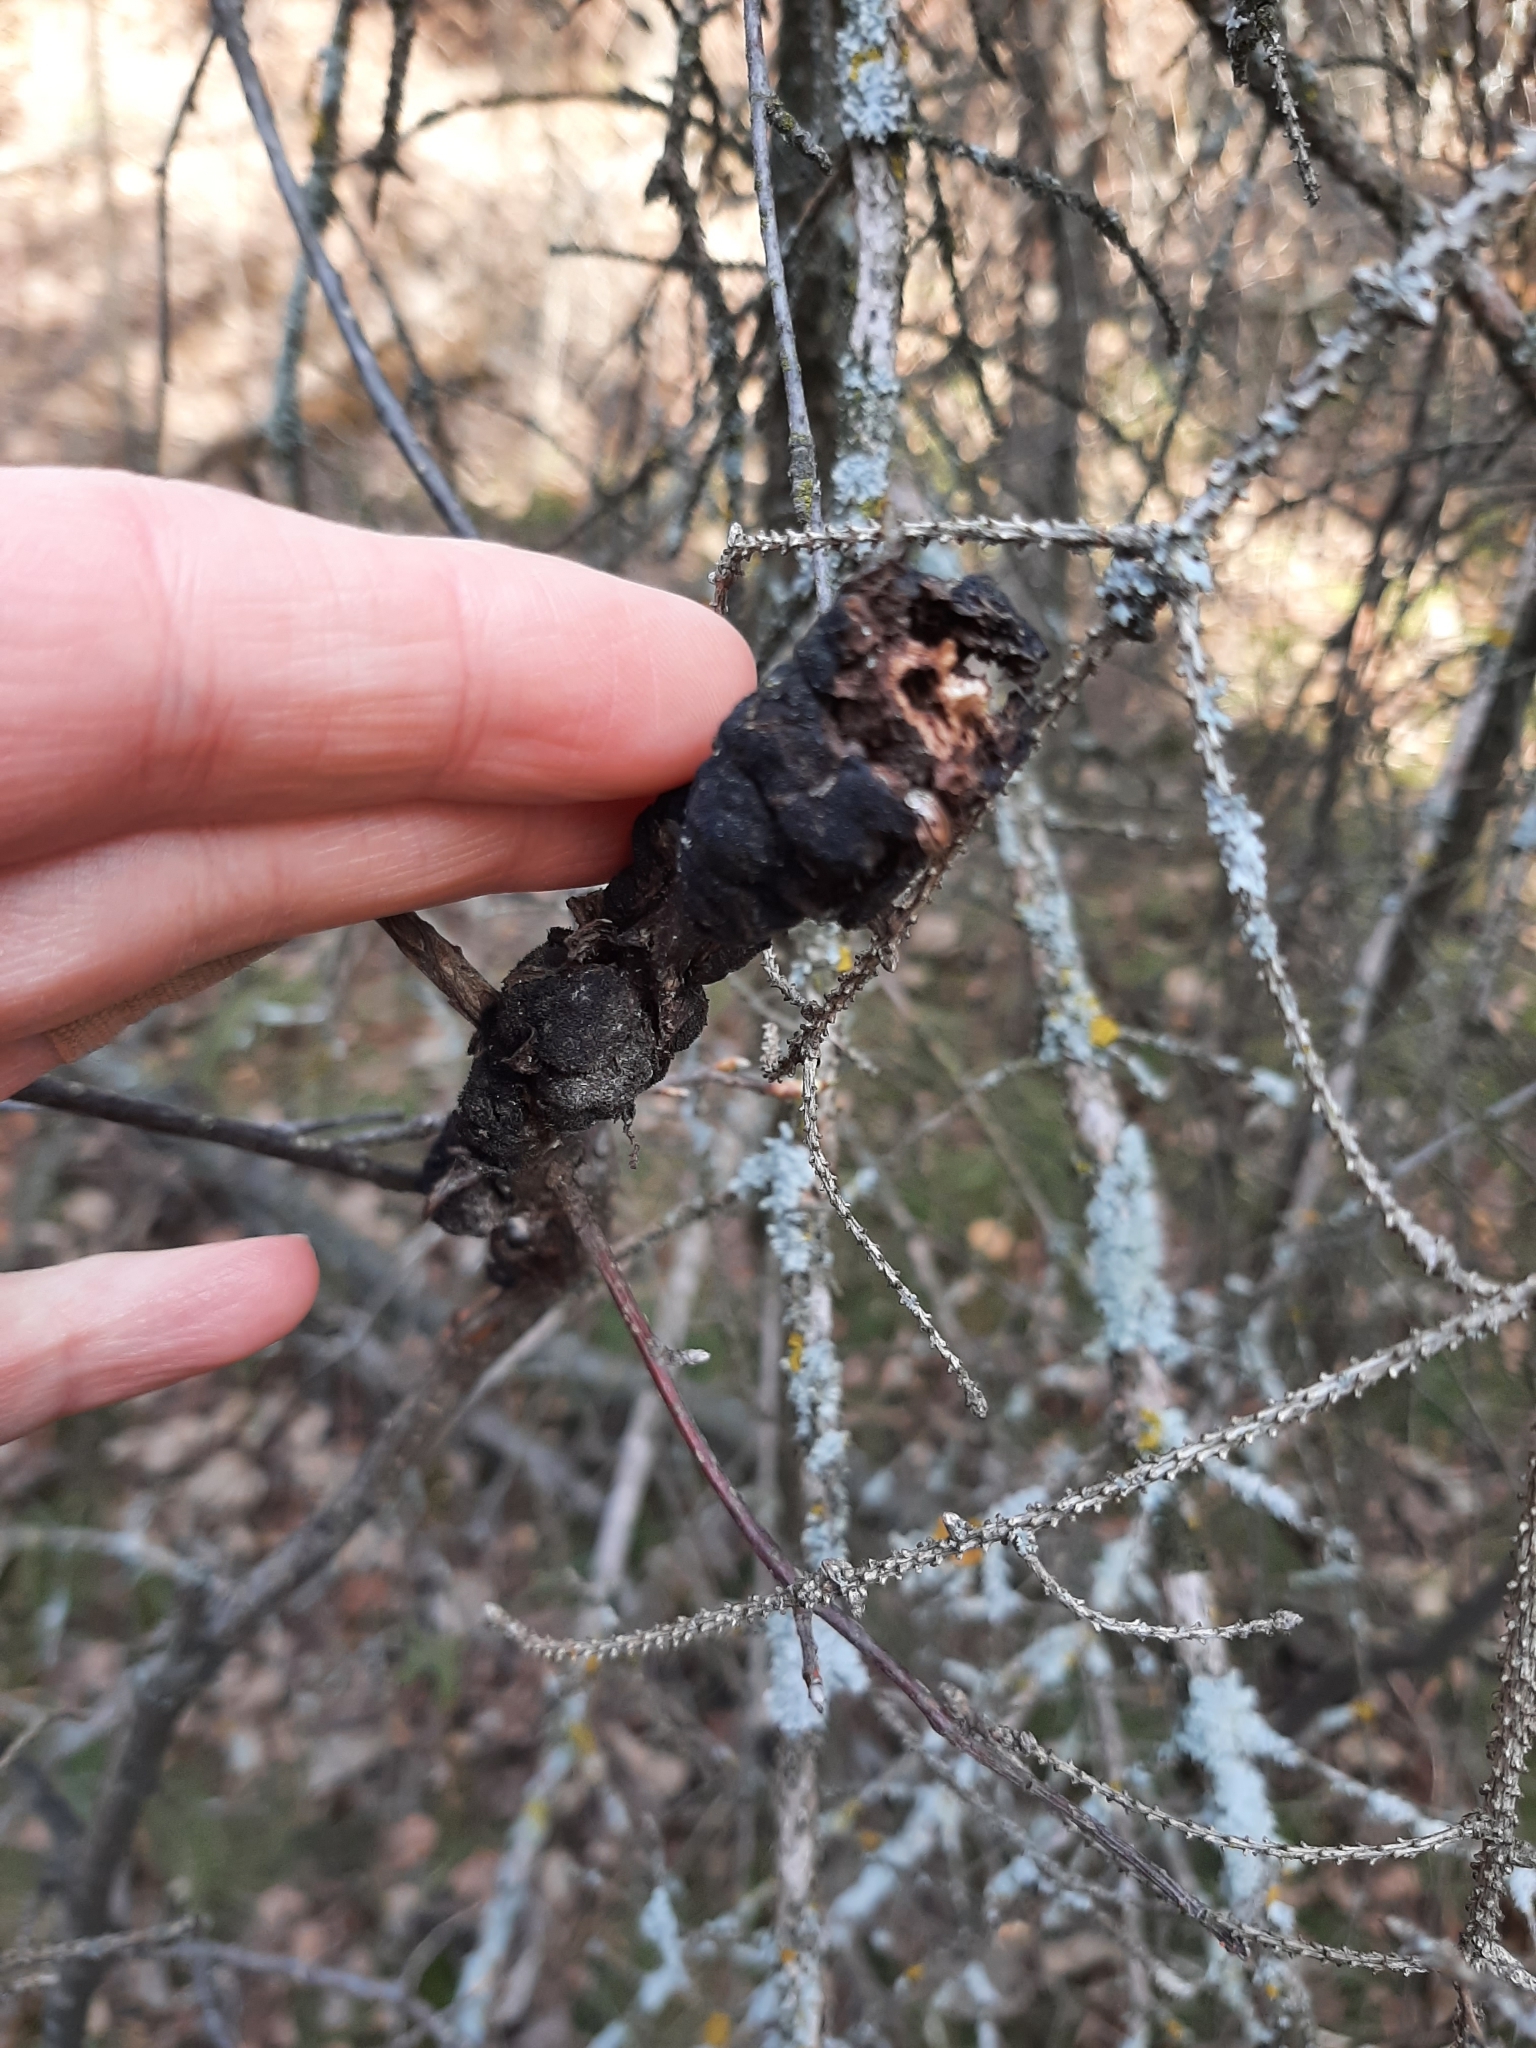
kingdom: Fungi
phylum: Ascomycota
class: Dothideomycetes
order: Venturiales
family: Venturiaceae
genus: Apiosporina
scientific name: Apiosporina morbosa
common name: Black knot
